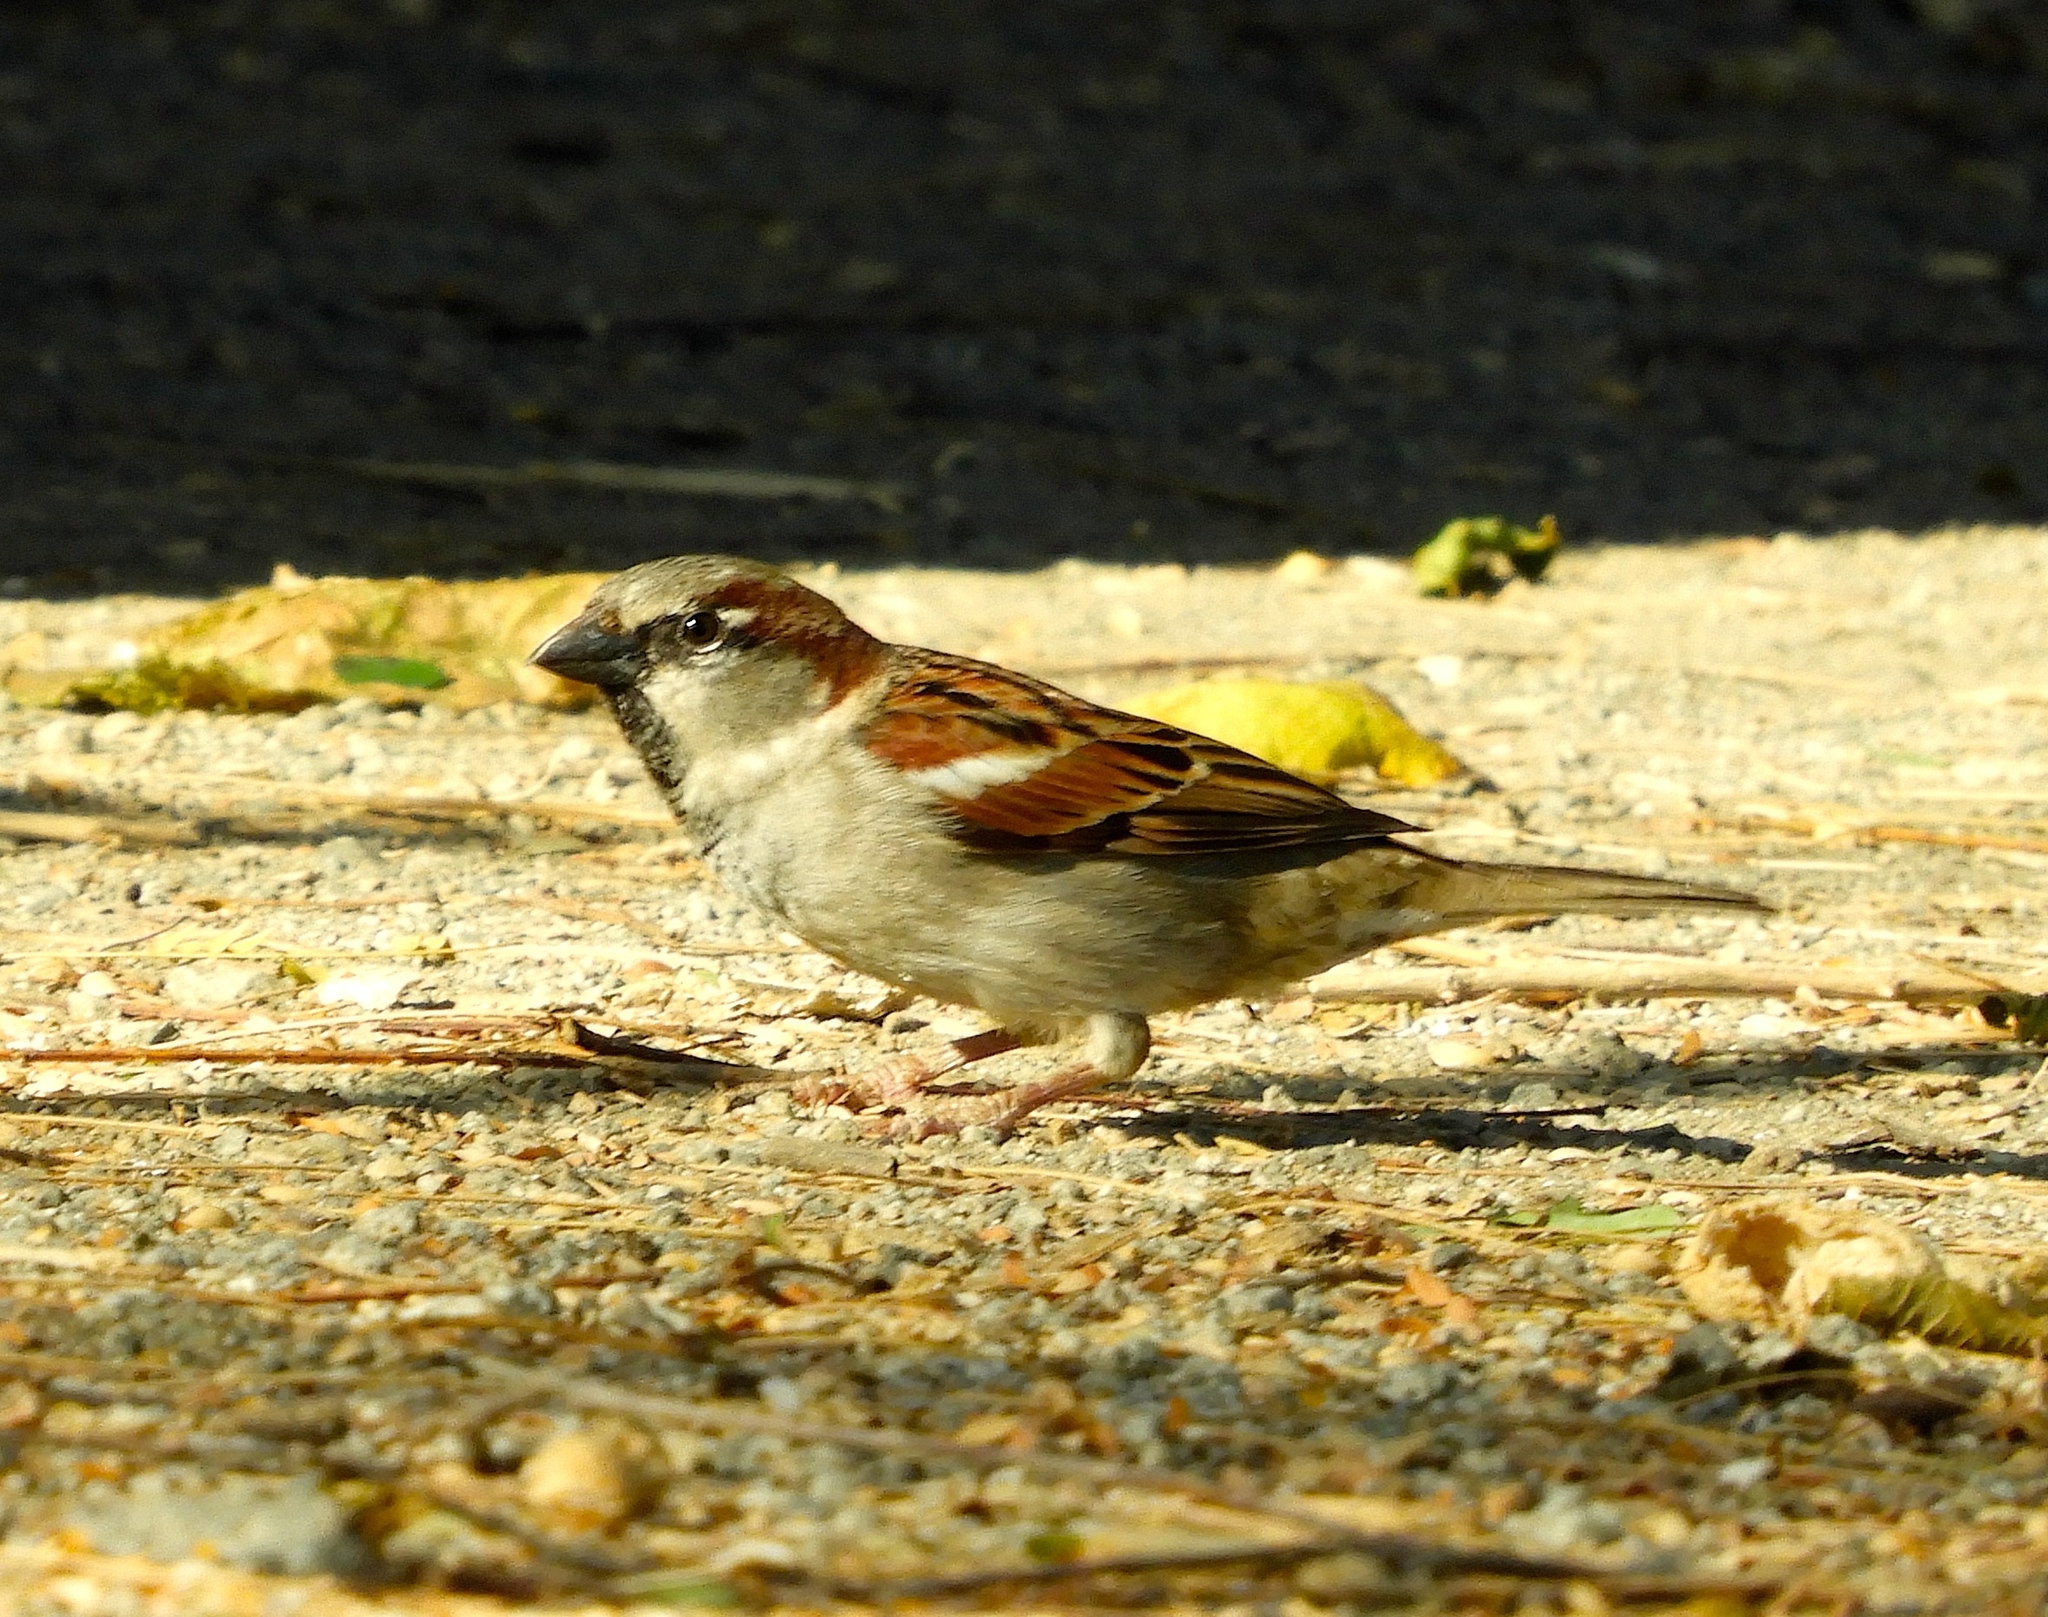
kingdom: Animalia
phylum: Chordata
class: Aves
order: Passeriformes
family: Passeridae
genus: Passer
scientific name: Passer domesticus
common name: House sparrow
